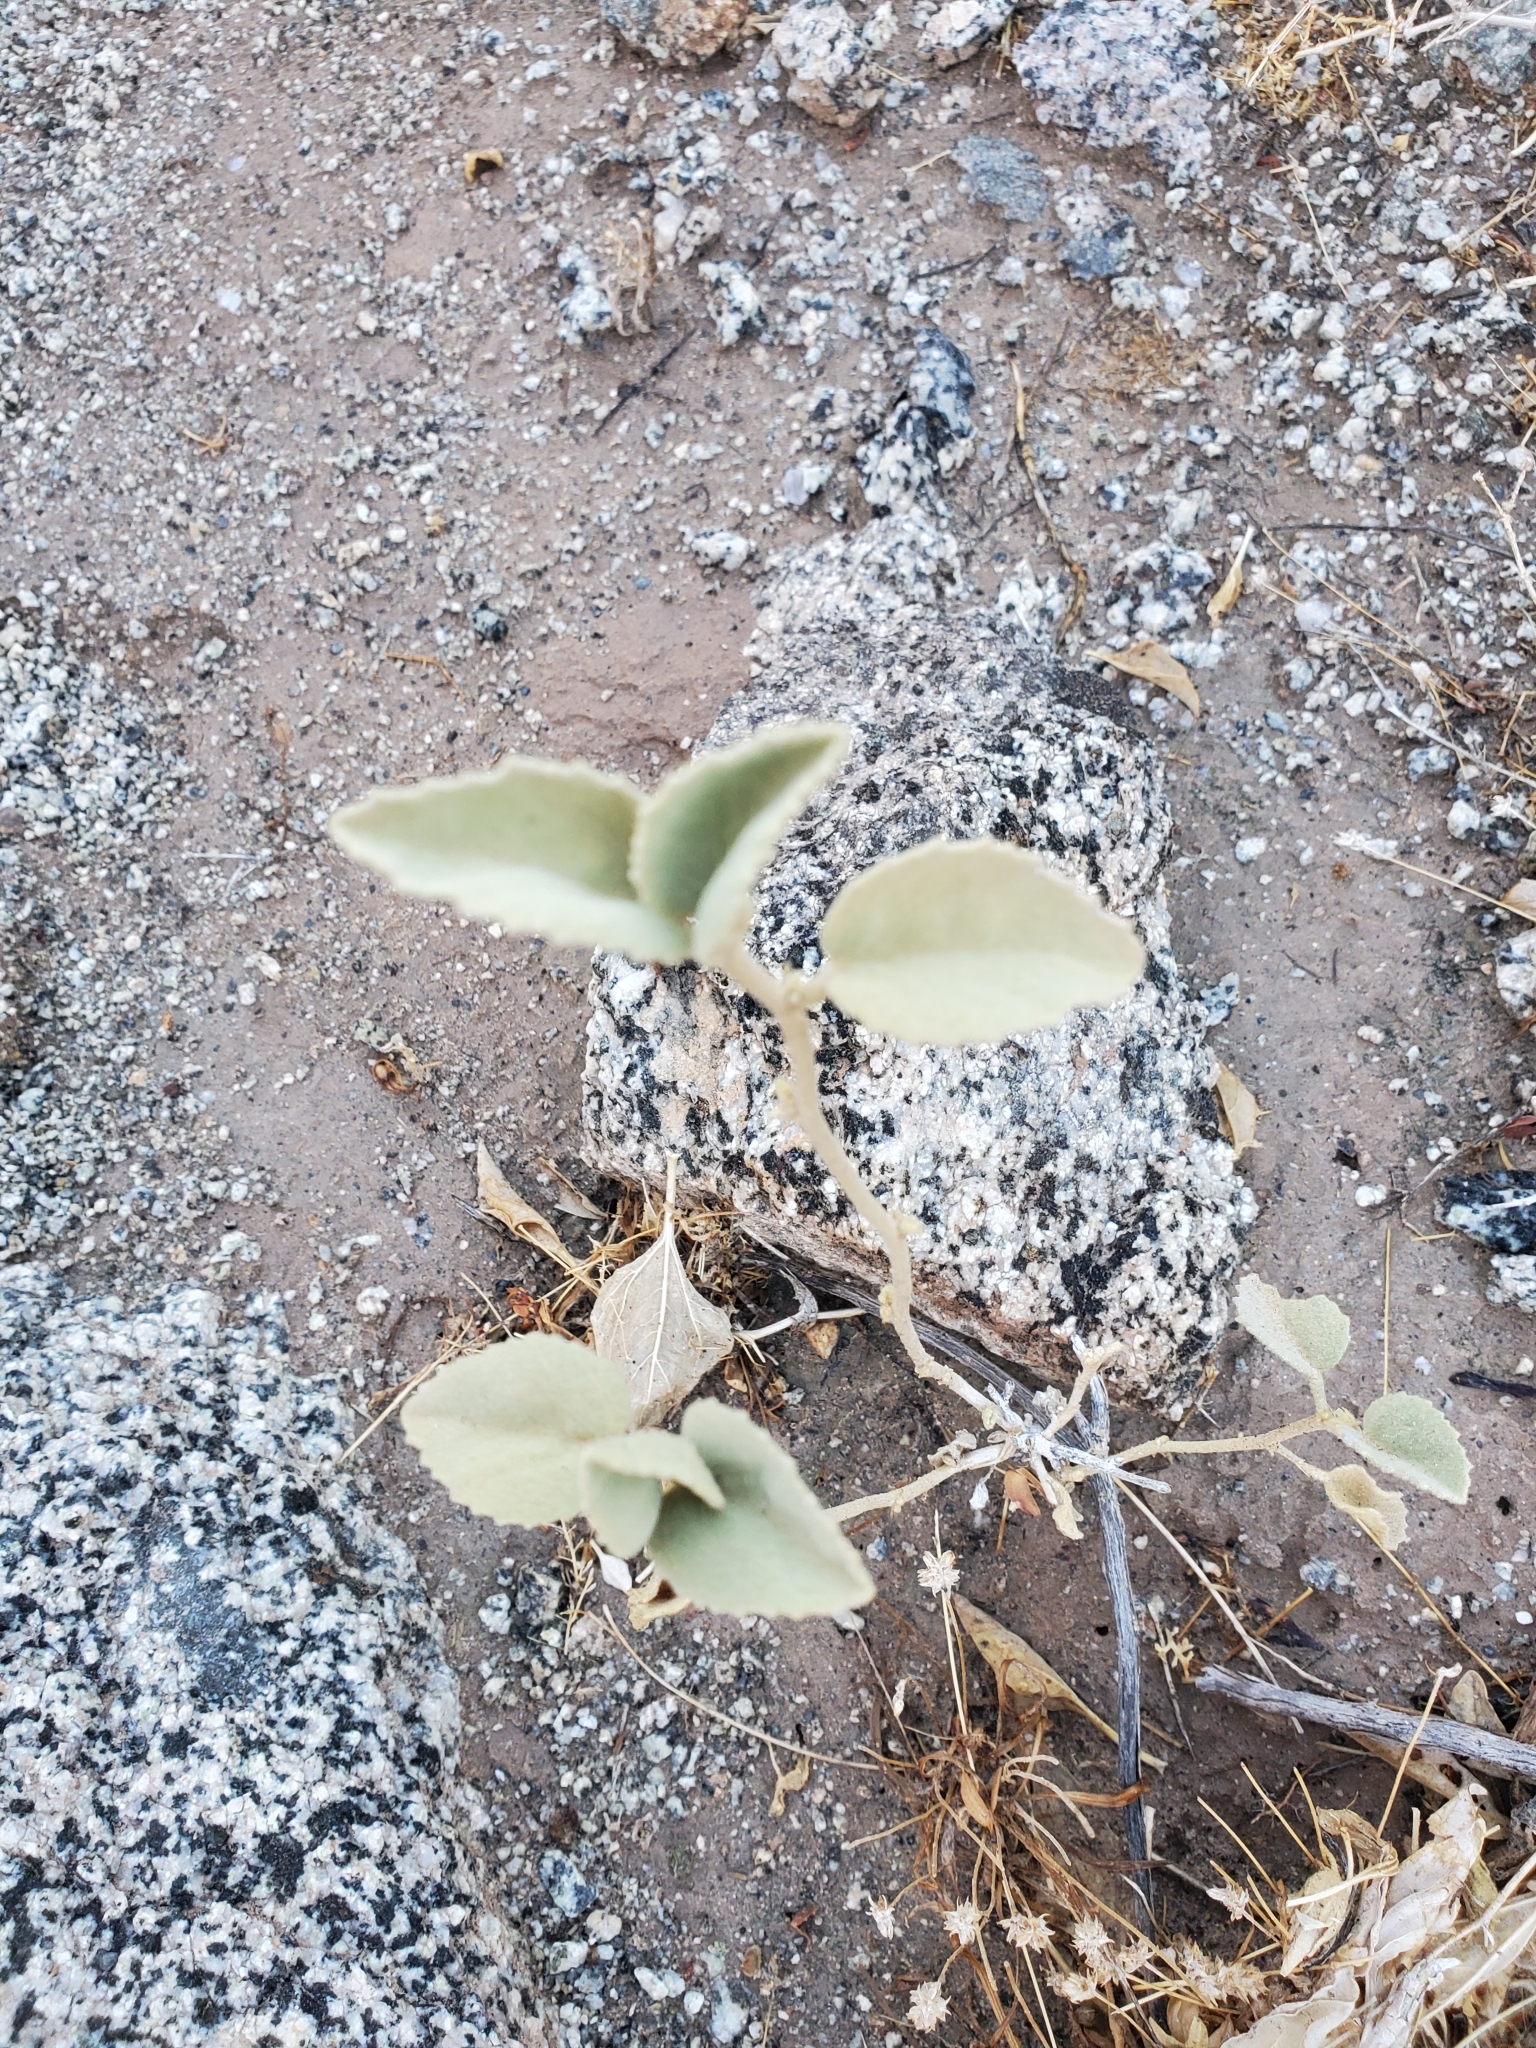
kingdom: Plantae
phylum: Tracheophyta
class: Magnoliopsida
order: Malvales
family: Malvaceae
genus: Hibiscus
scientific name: Hibiscus denudatus
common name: Paleface
